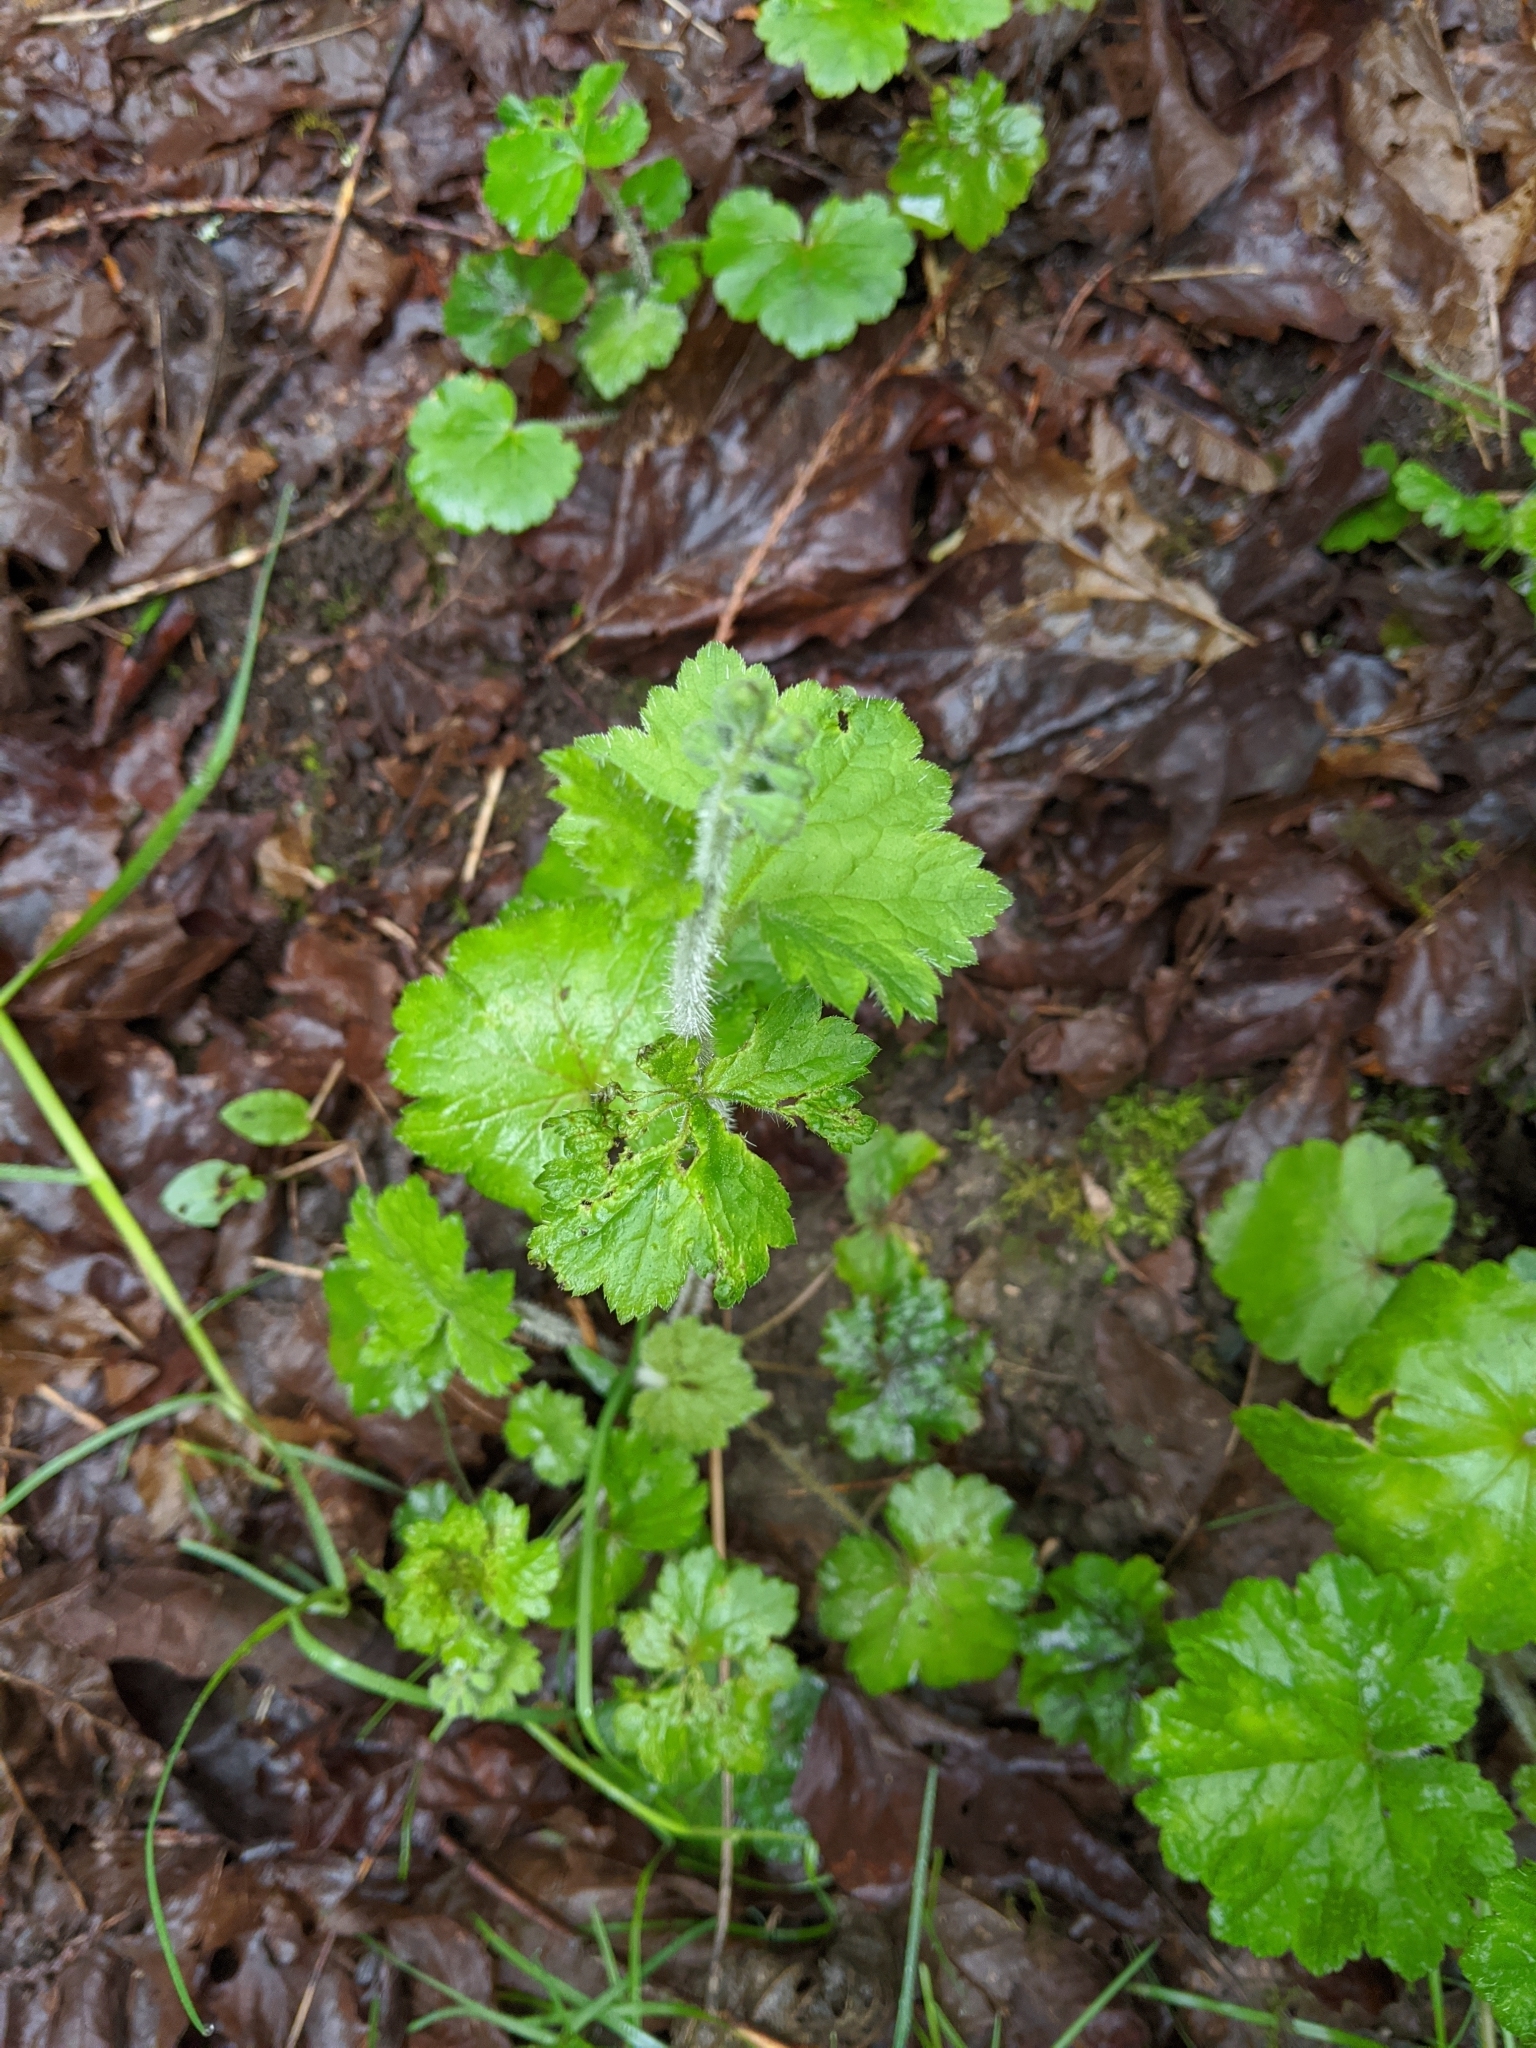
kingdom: Plantae
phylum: Tracheophyta
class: Magnoliopsida
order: Saxifragales
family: Saxifragaceae
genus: Tellima
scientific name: Tellima grandiflora
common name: Fringecups
